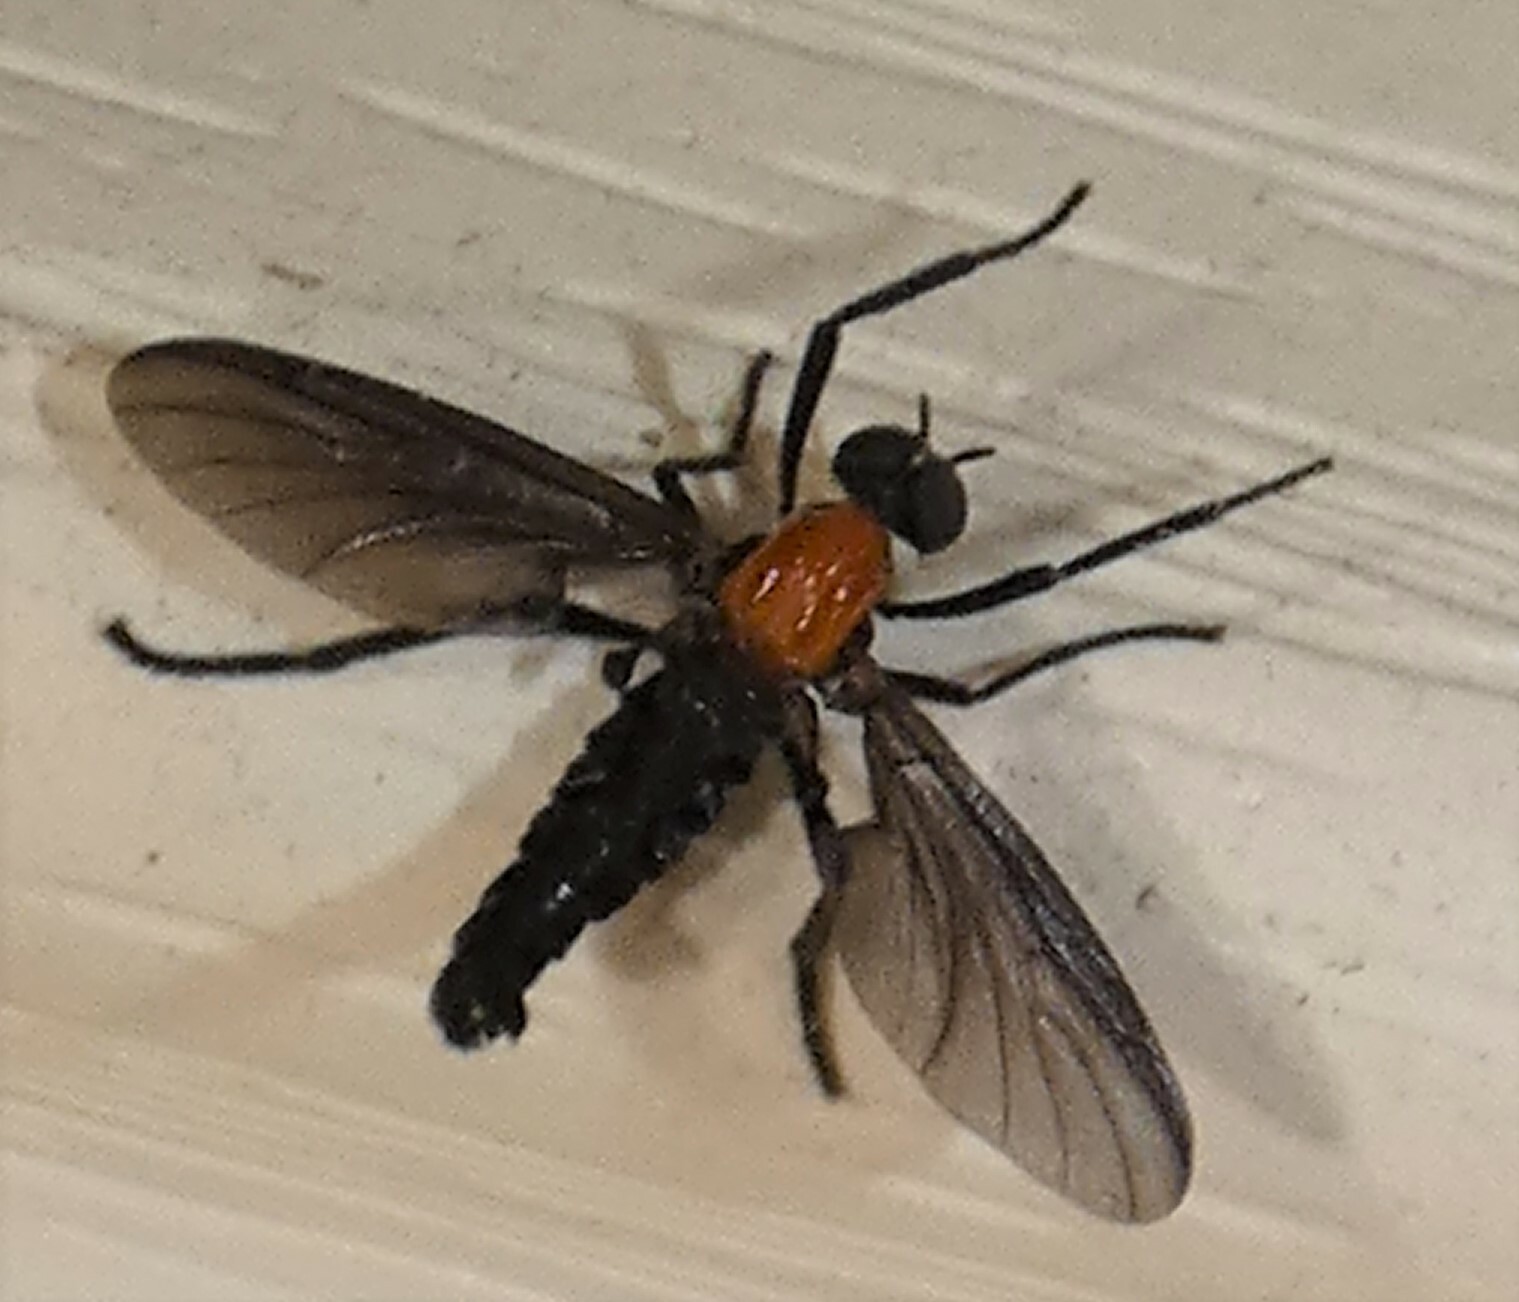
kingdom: Animalia
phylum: Arthropoda
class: Insecta
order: Diptera
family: Bibionidae
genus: Plecia
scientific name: Plecia nearctica
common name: March fly
